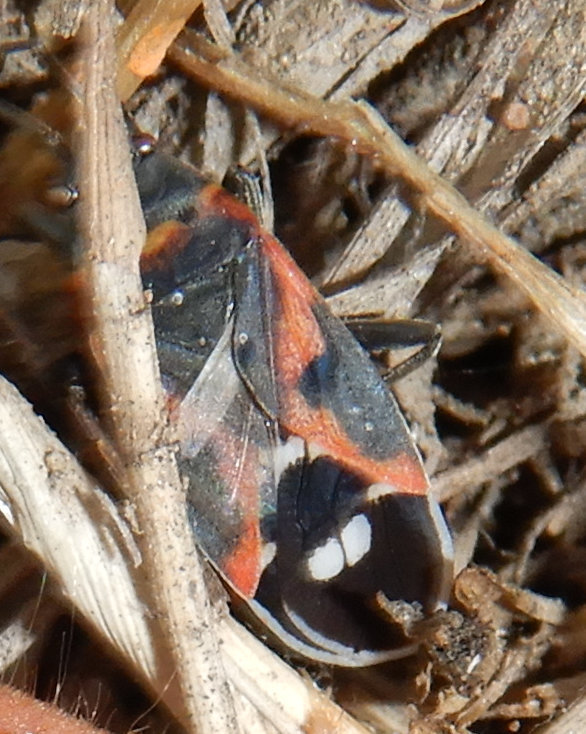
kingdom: Animalia
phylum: Arthropoda
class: Insecta
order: Hemiptera
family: Lygaeidae
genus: Lygaeus
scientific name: Lygaeus kalmii
